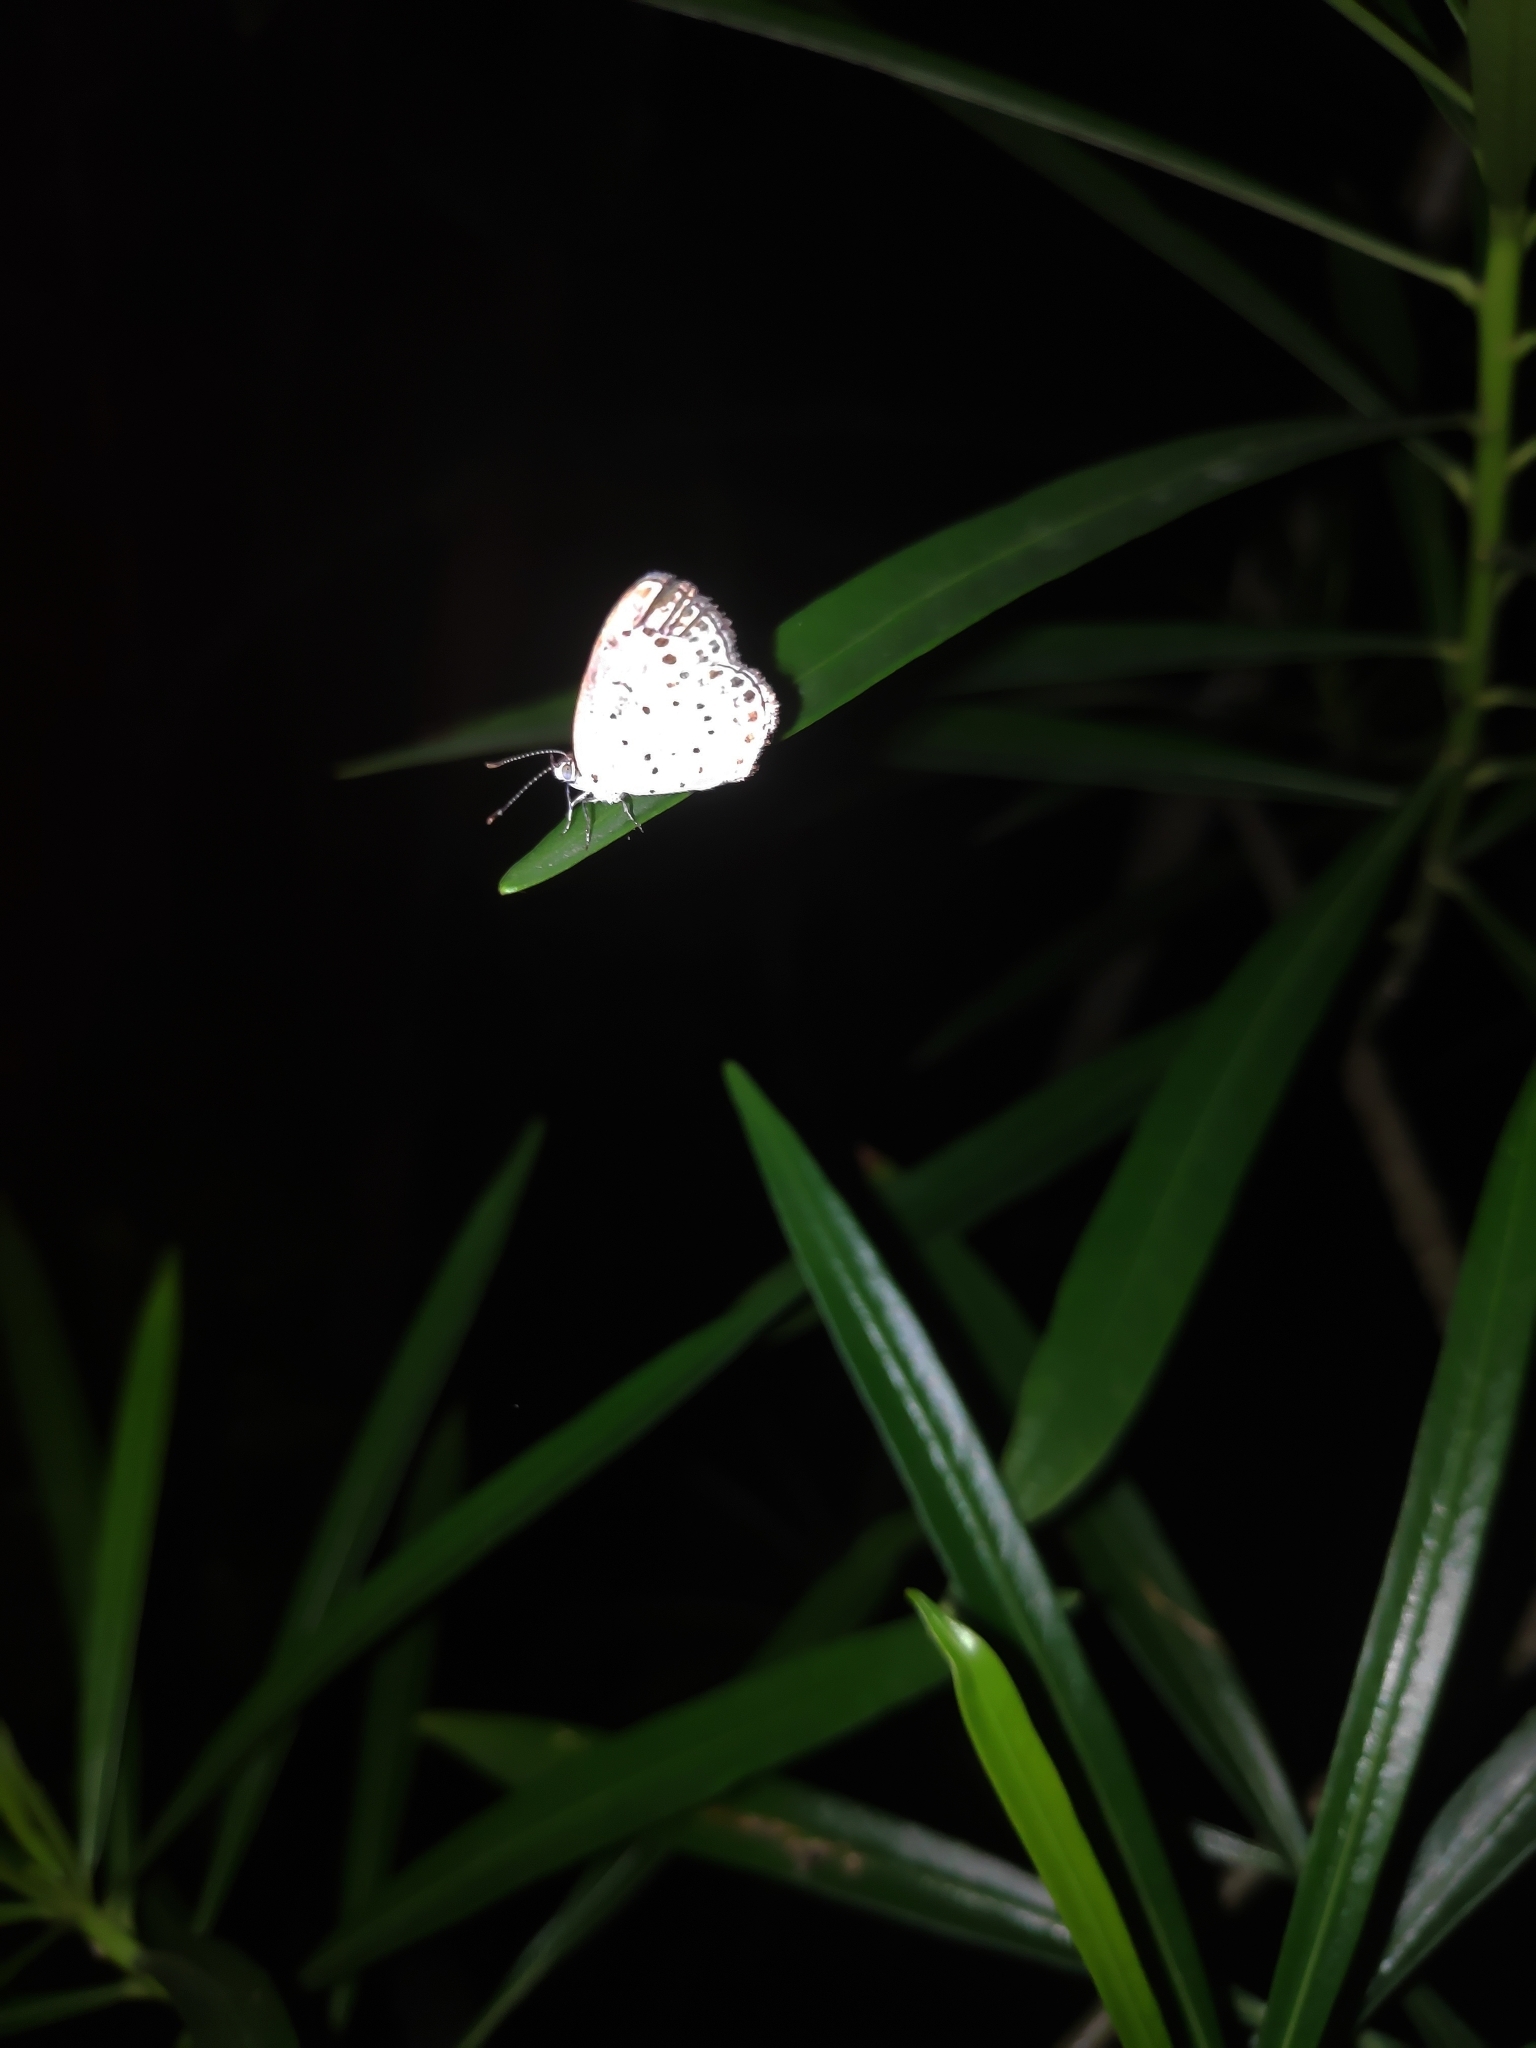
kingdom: Animalia
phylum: Arthropoda
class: Insecta
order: Lepidoptera
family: Lycaenidae
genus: Acytolepis
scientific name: Acytolepis puspa
